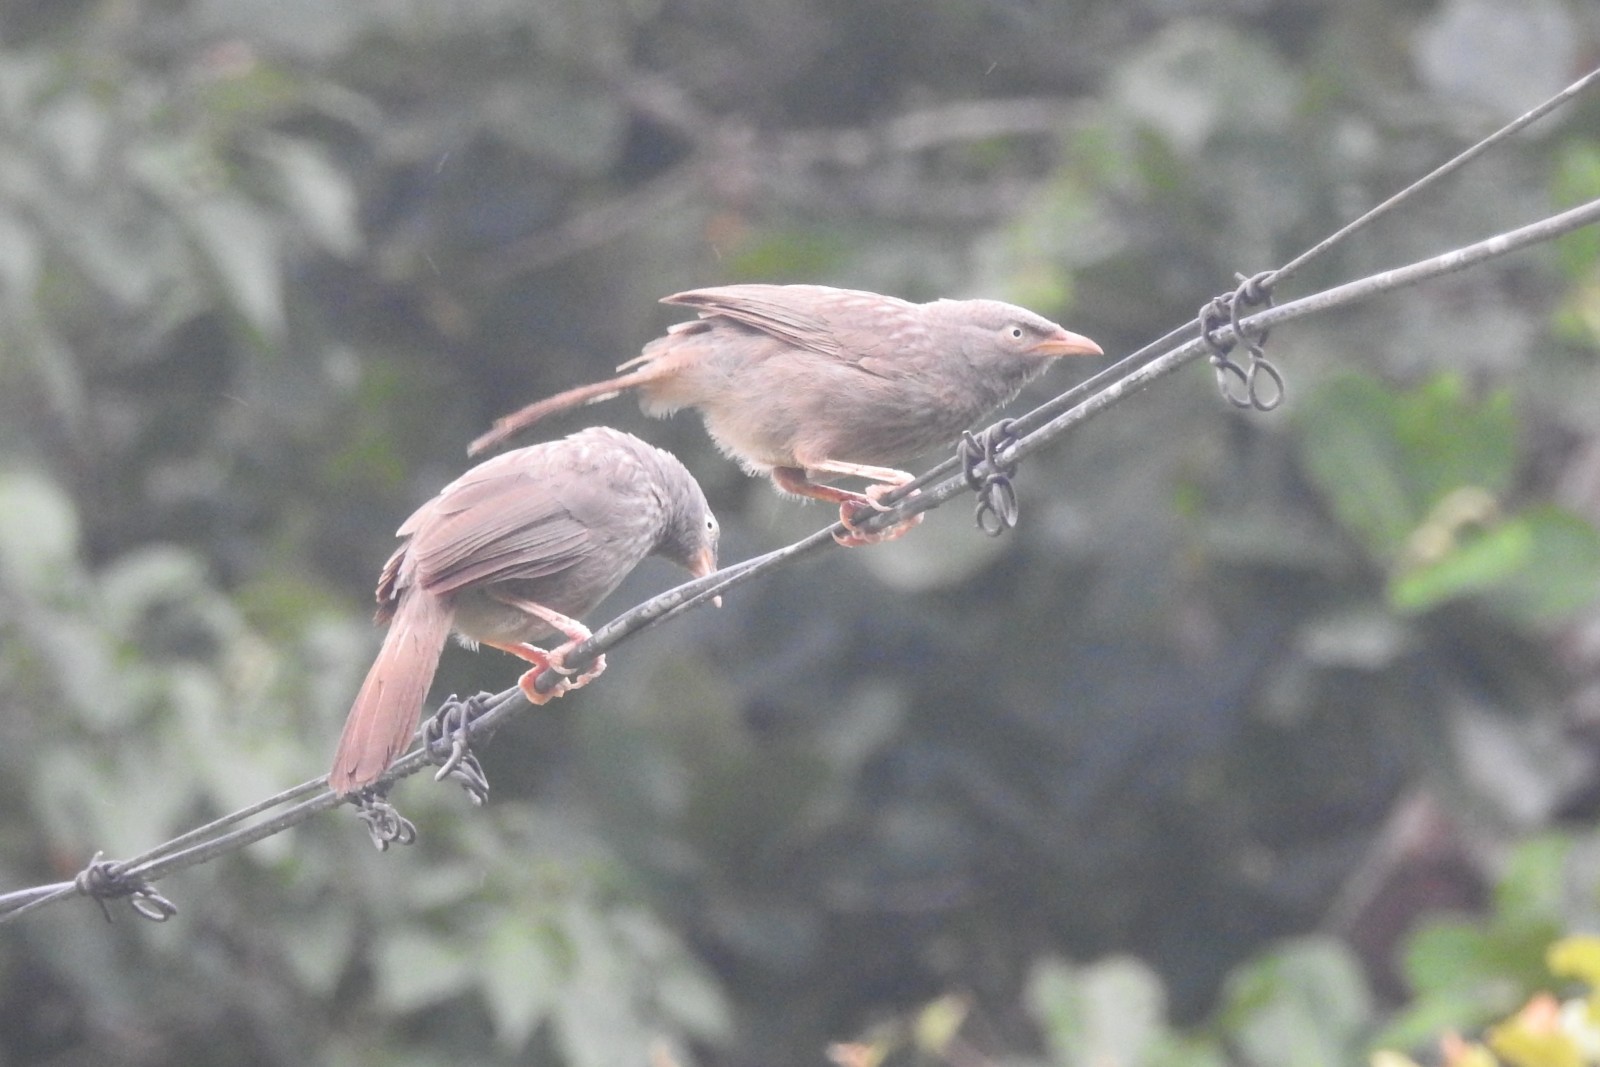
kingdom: Animalia
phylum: Chordata
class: Aves
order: Passeriformes
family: Leiothrichidae
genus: Turdoides
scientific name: Turdoides striata
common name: Jungle babbler
